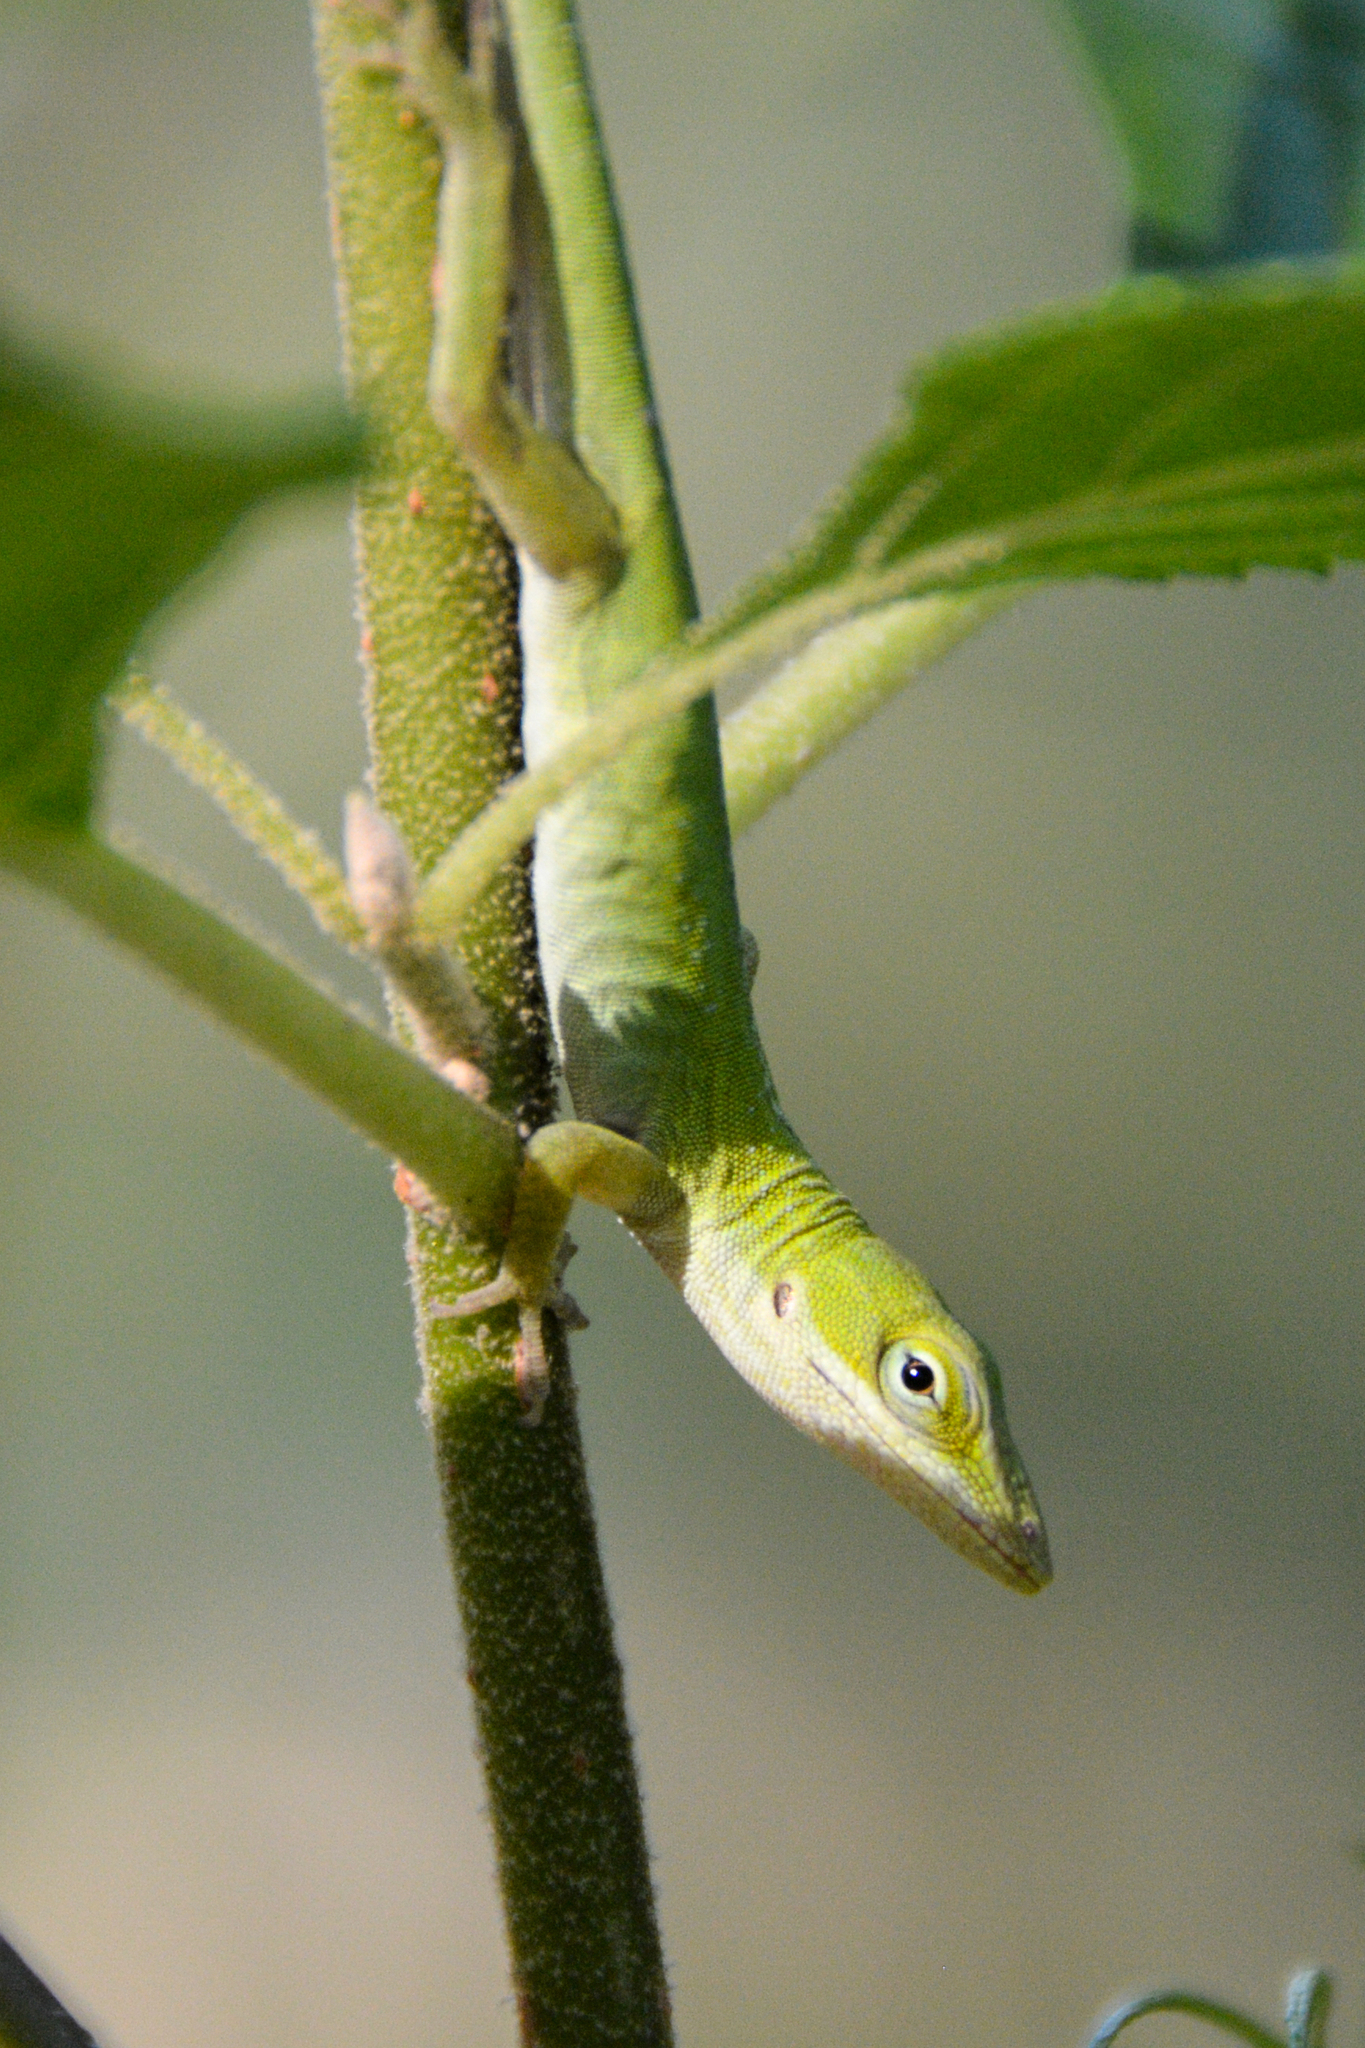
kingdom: Animalia
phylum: Chordata
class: Squamata
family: Dactyloidae
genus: Anolis
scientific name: Anolis carolinensis
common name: Green anole
